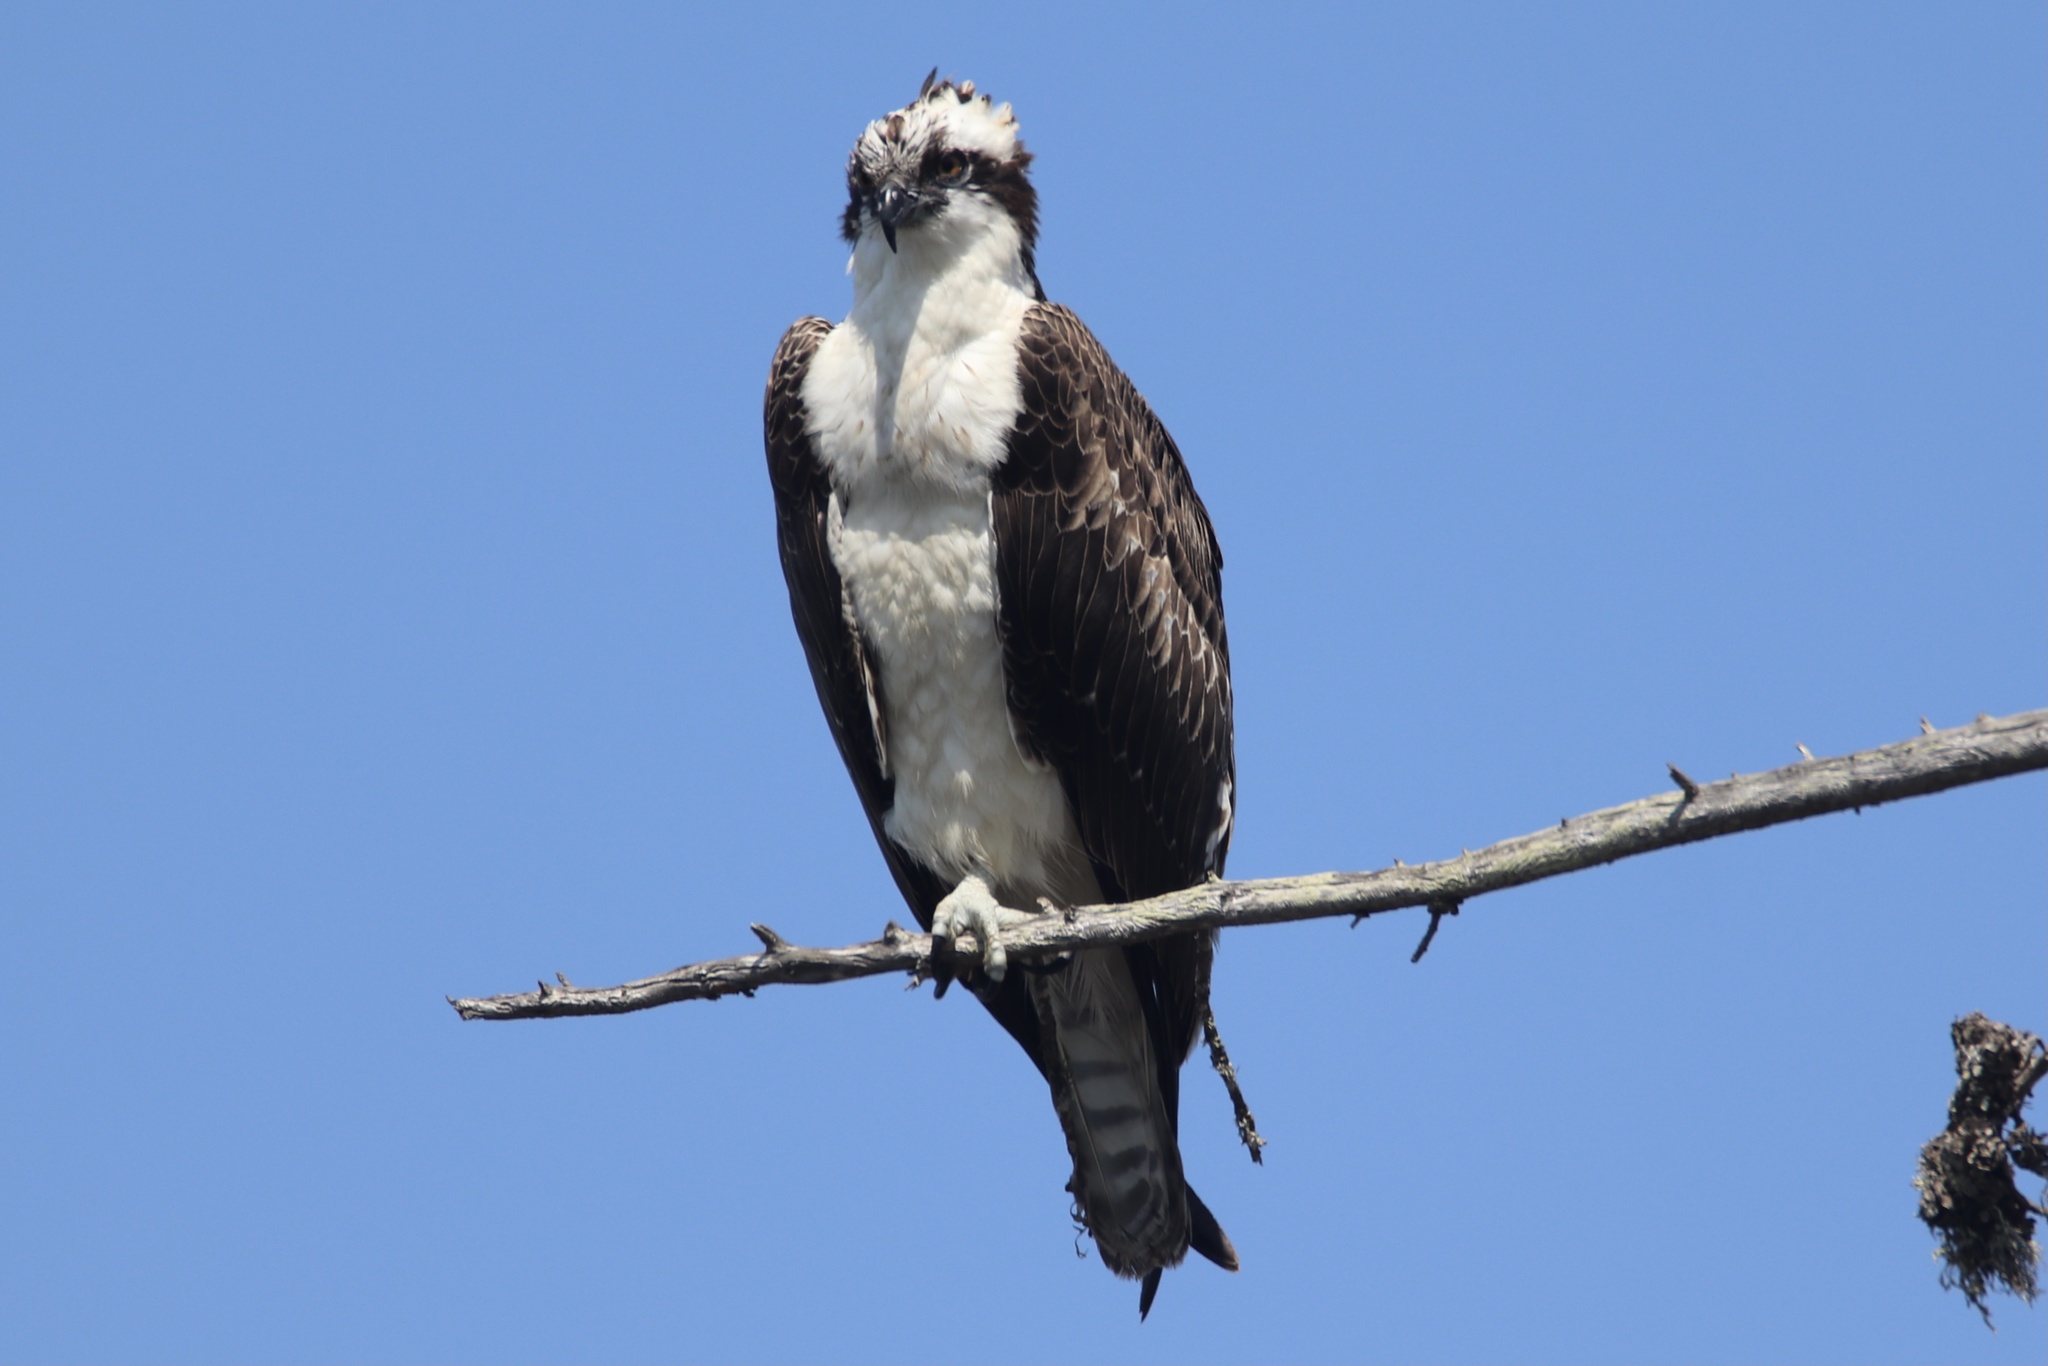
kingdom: Animalia
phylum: Chordata
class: Aves
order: Accipitriformes
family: Pandionidae
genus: Pandion
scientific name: Pandion haliaetus
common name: Osprey
